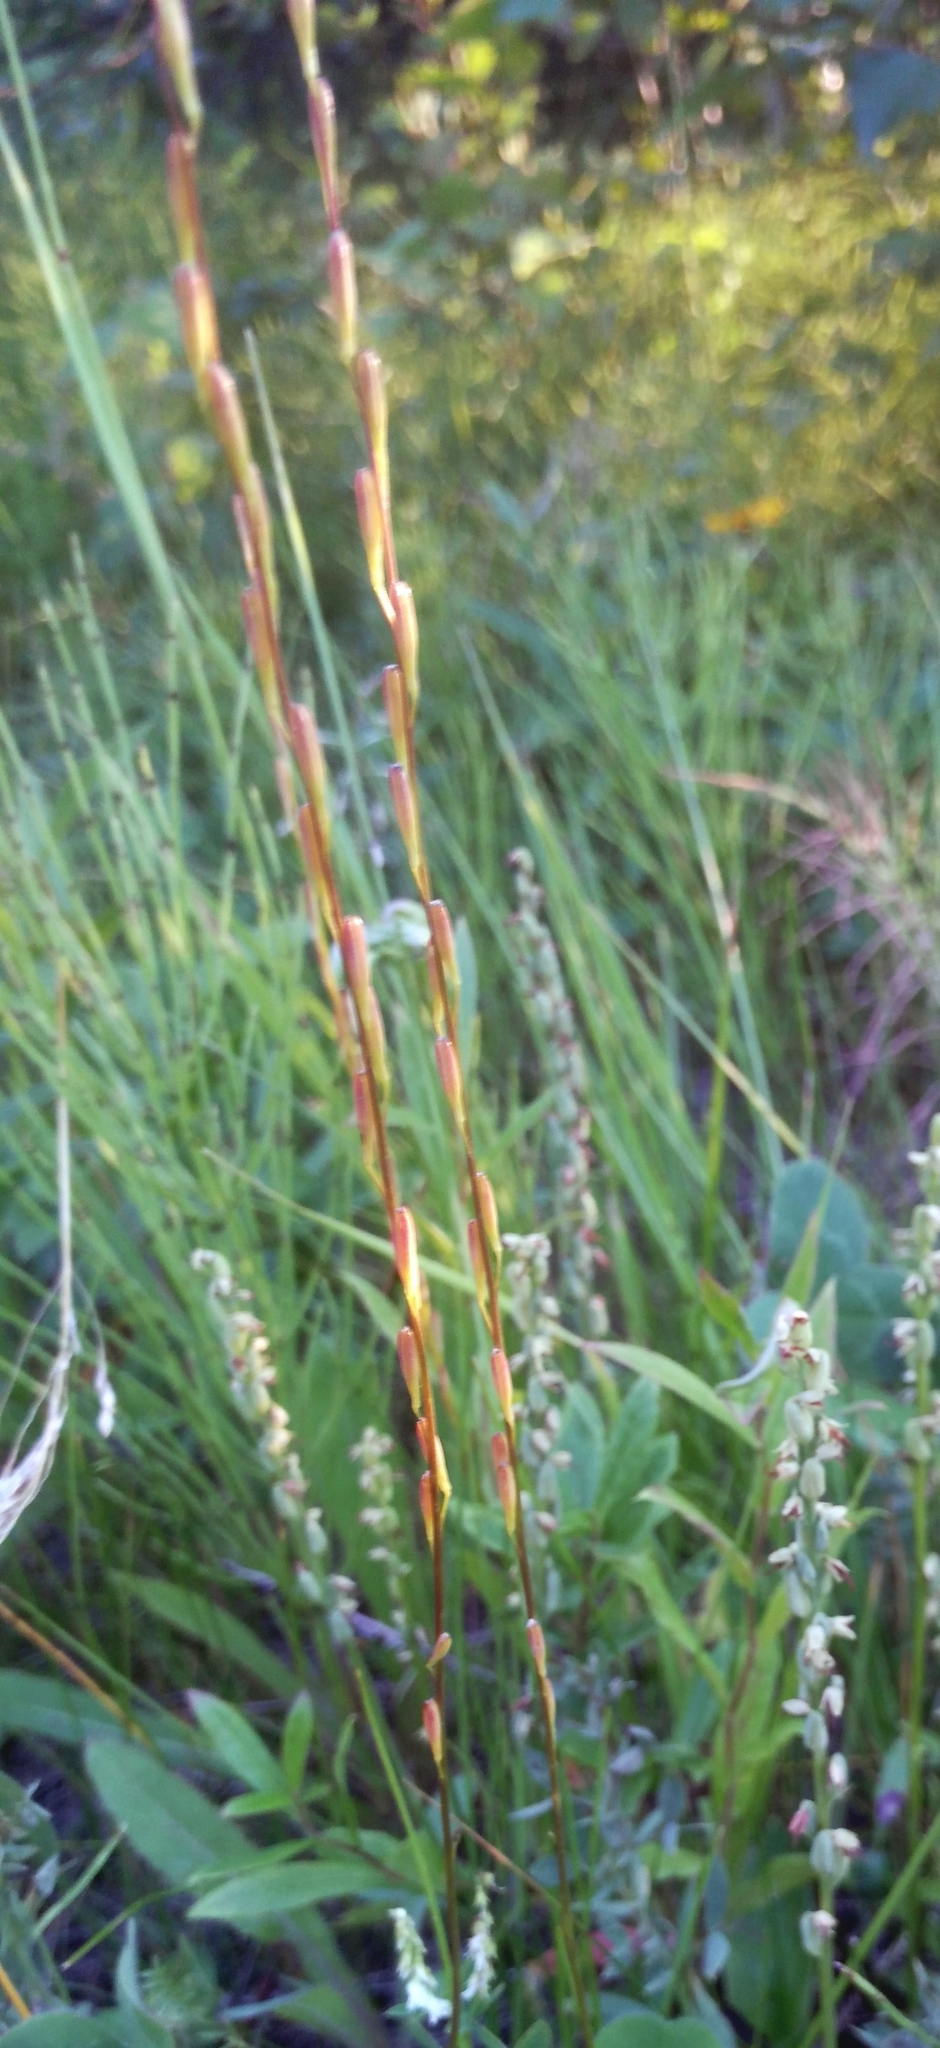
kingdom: Plantae
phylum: Tracheophyta
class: Liliopsida
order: Alismatales
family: Juncaginaceae
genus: Triglochin
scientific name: Triglochin palustris
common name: Marsh arrowgrass
